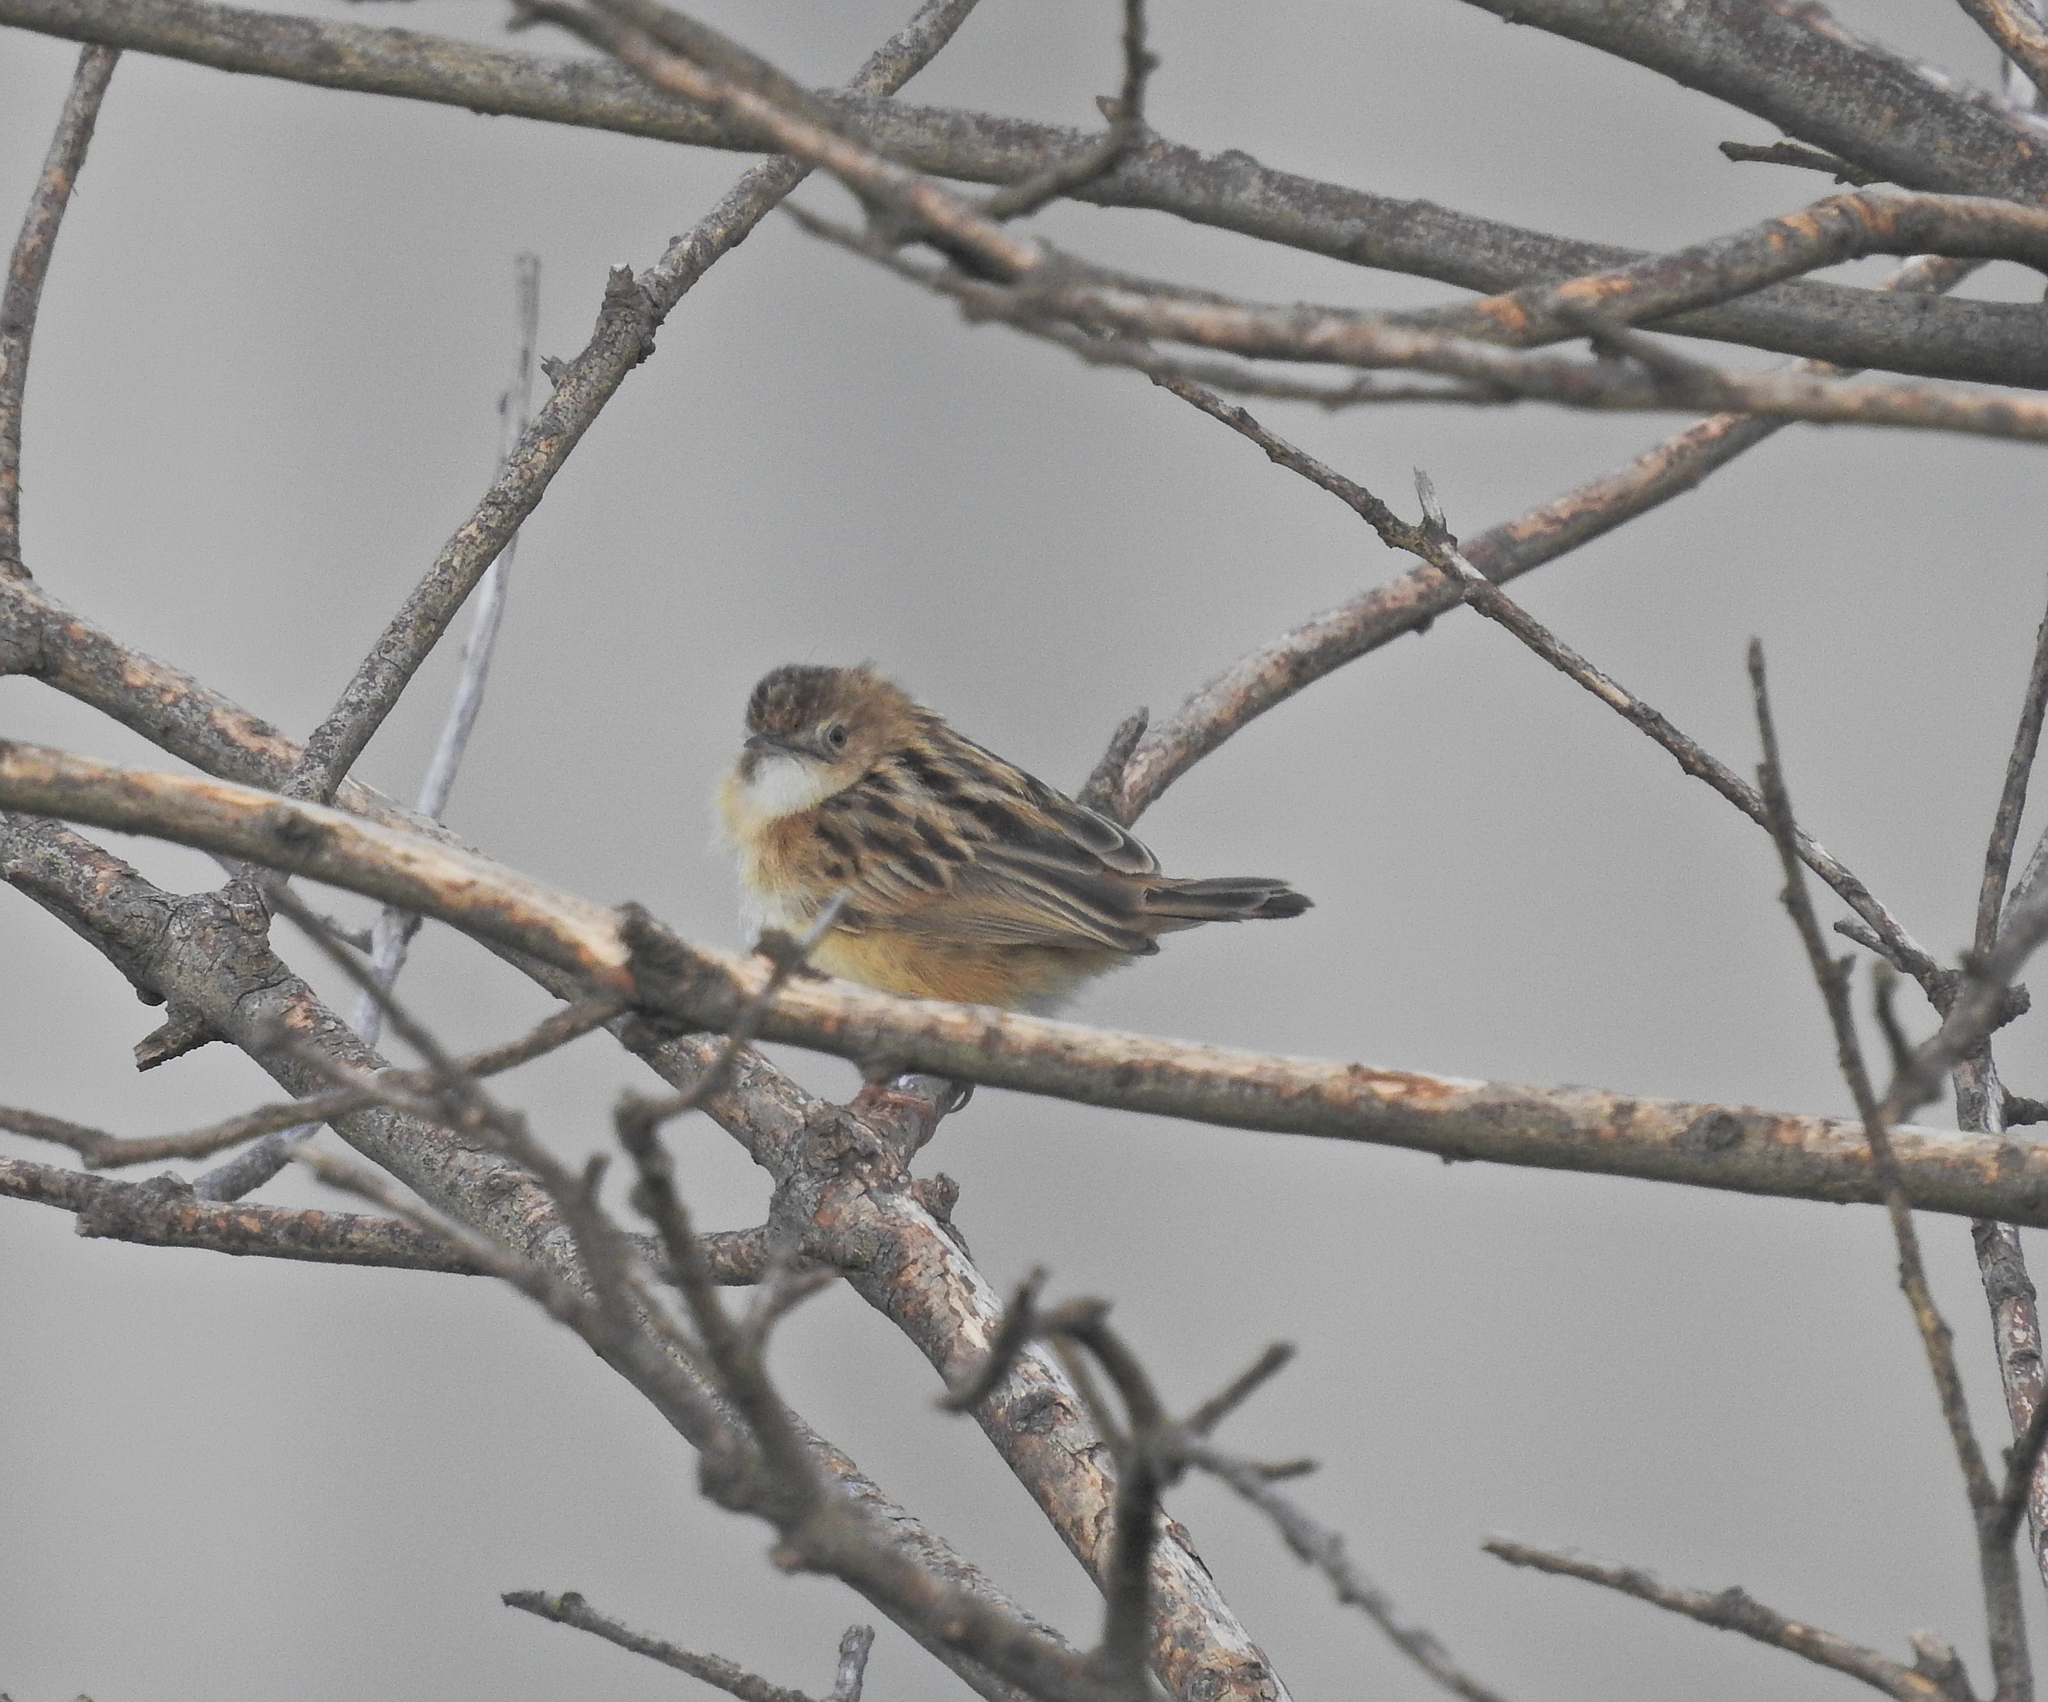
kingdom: Animalia
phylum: Chordata
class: Aves
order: Passeriformes
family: Cisticolidae
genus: Cisticola
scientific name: Cisticola juncidis
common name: Zitting cisticola
